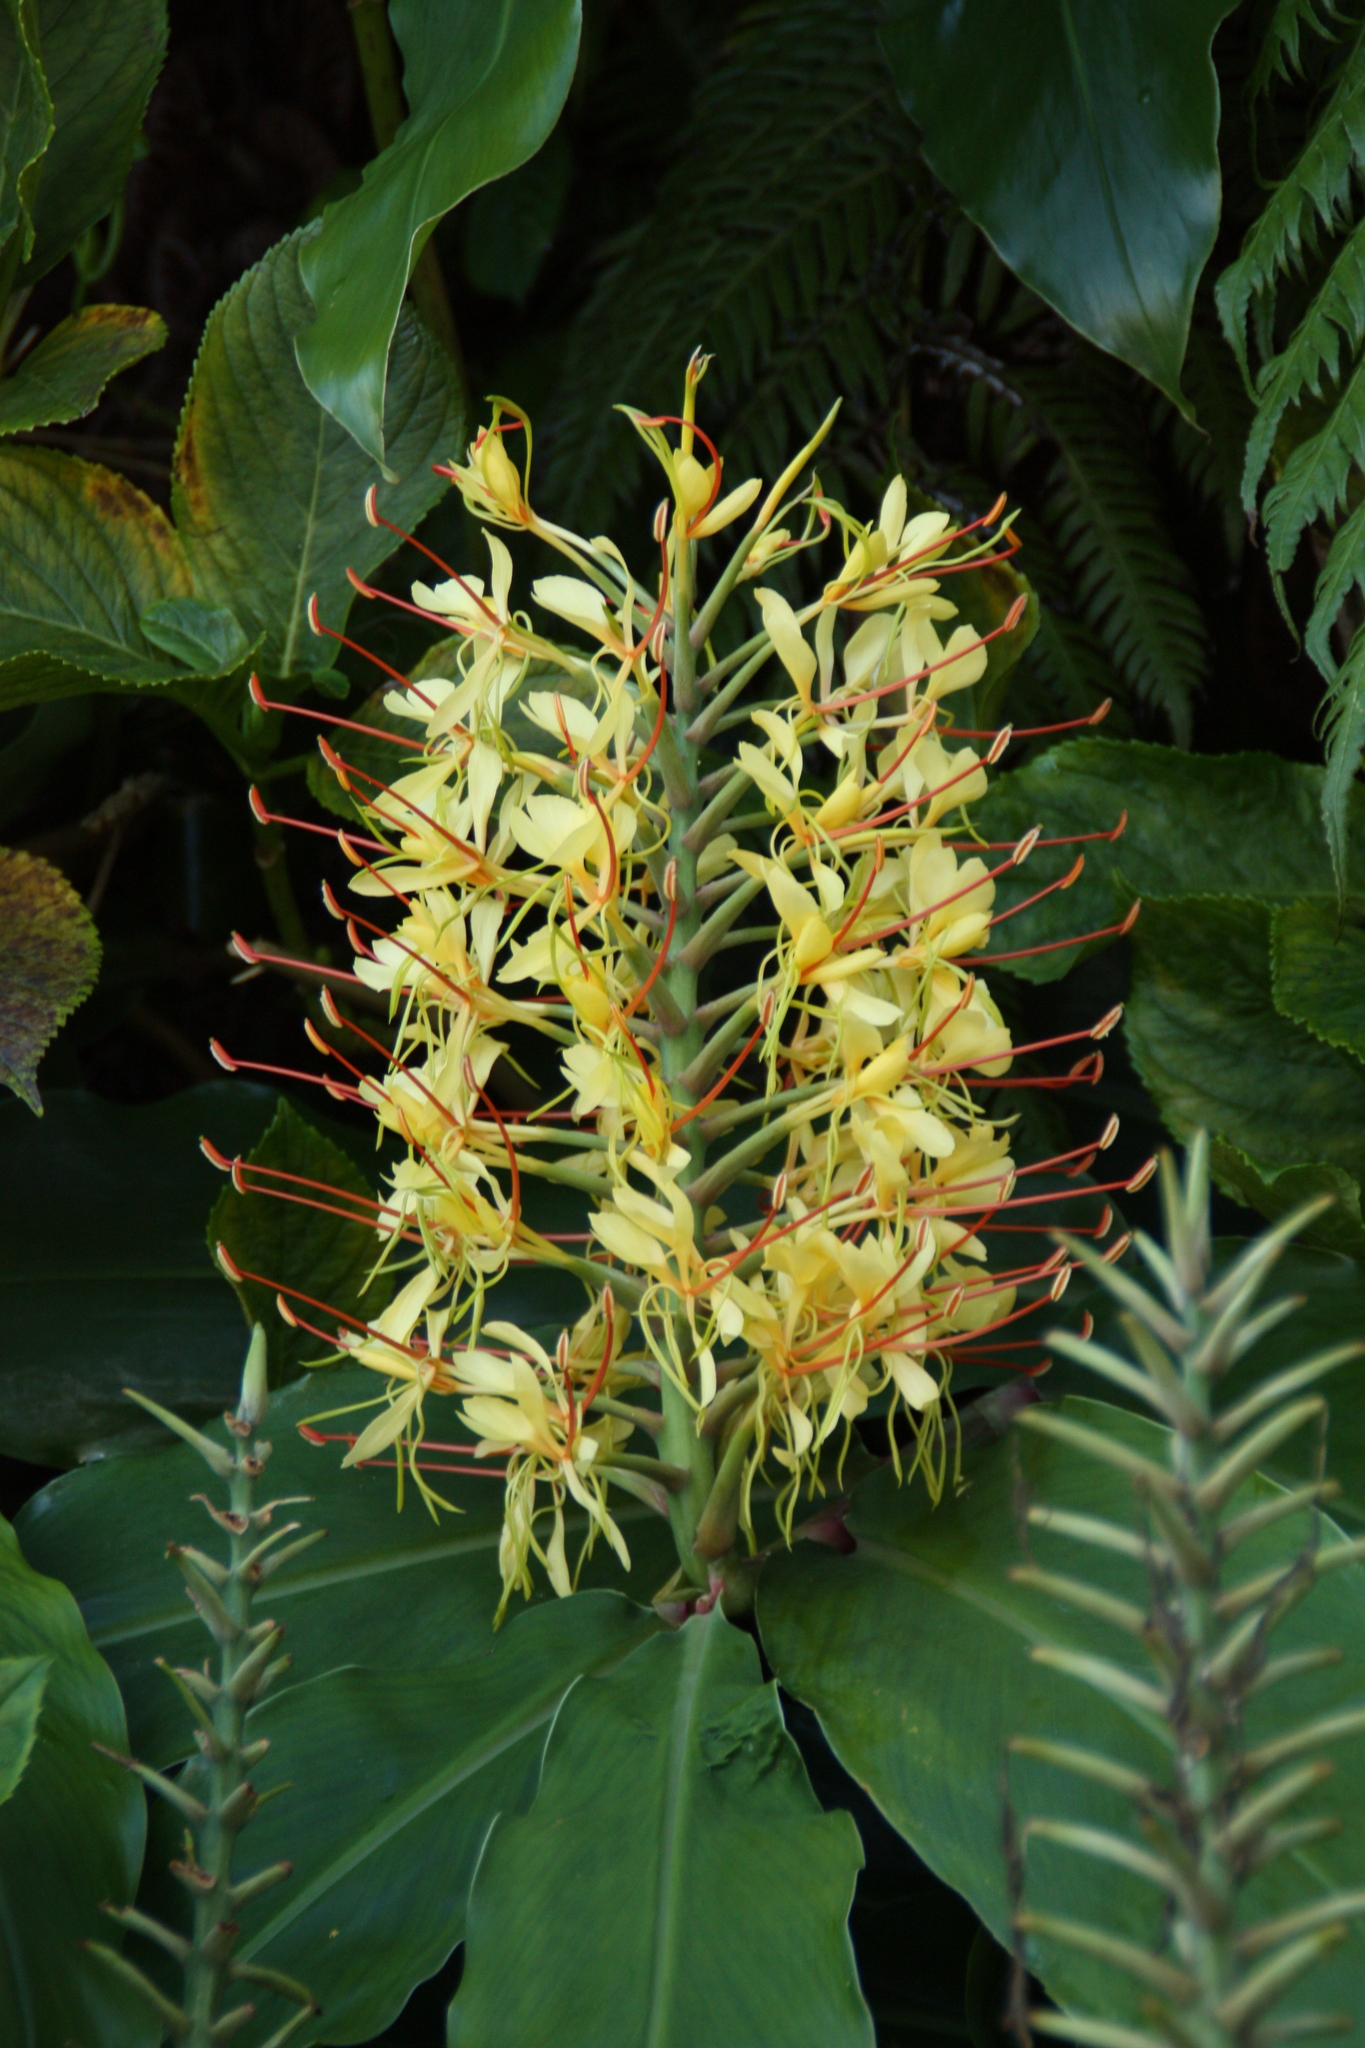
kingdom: Plantae
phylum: Tracheophyta
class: Liliopsida
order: Zingiberales
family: Zingiberaceae
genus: Hedychium
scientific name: Hedychium gardnerianum
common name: Himalayan ginger
